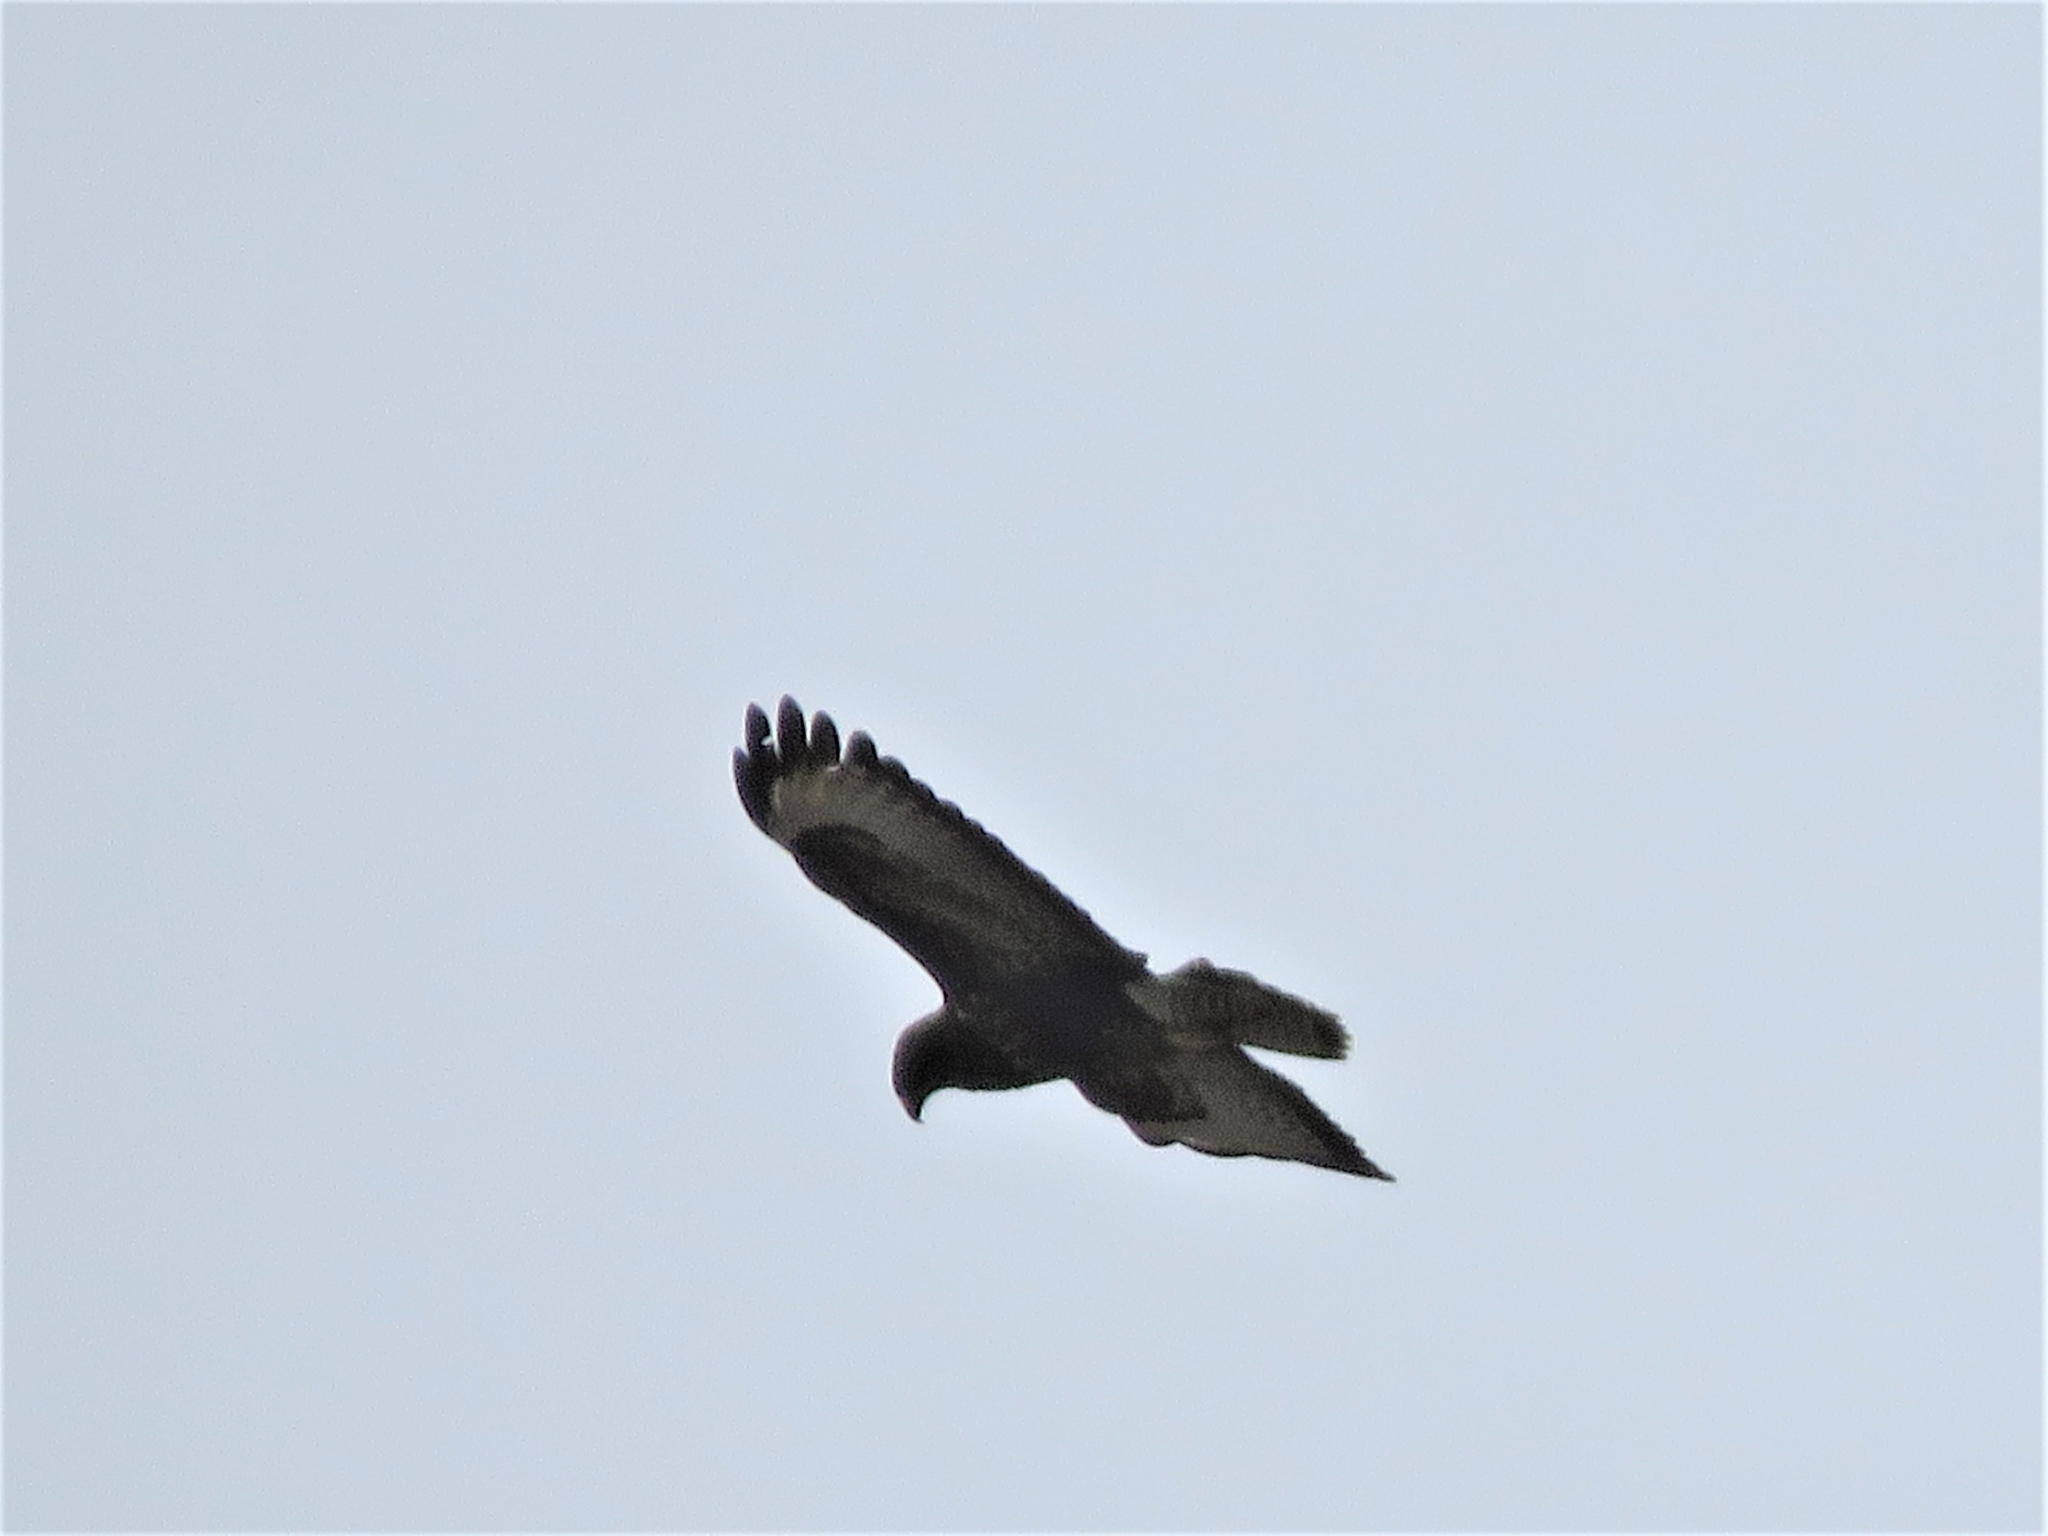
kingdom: Animalia
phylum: Chordata
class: Aves
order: Accipitriformes
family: Accipitridae
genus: Buteo
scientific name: Buteo buteo
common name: Common buzzard
